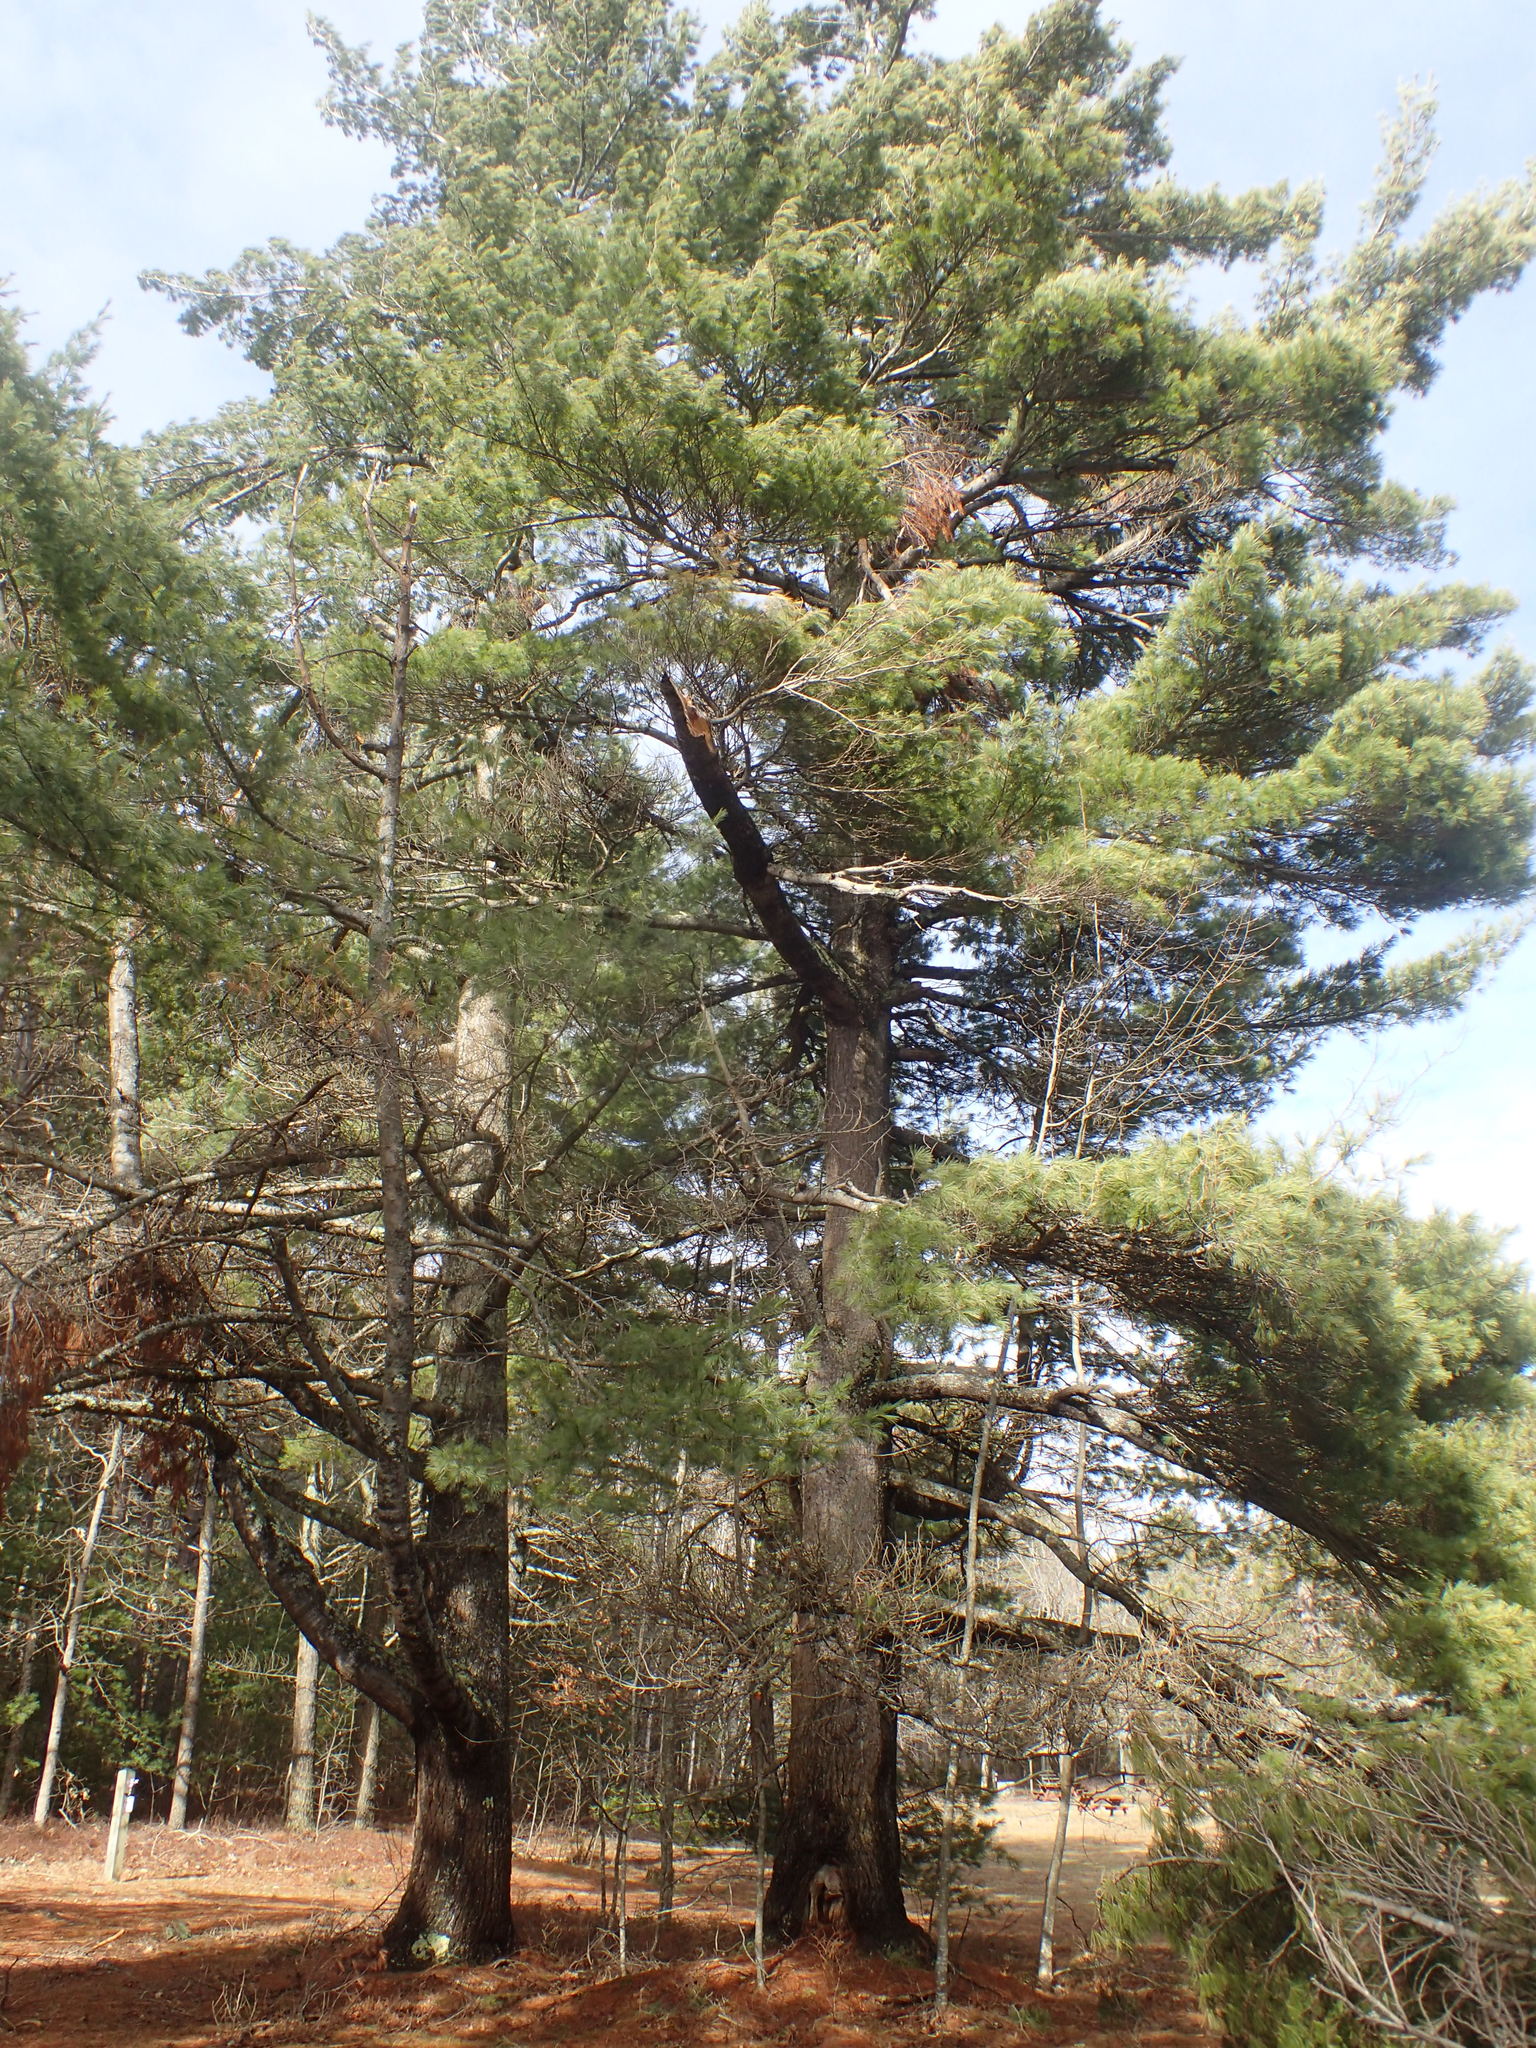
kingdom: Plantae
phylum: Tracheophyta
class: Pinopsida
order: Pinales
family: Pinaceae
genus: Pinus
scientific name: Pinus strobus
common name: Weymouth pine
